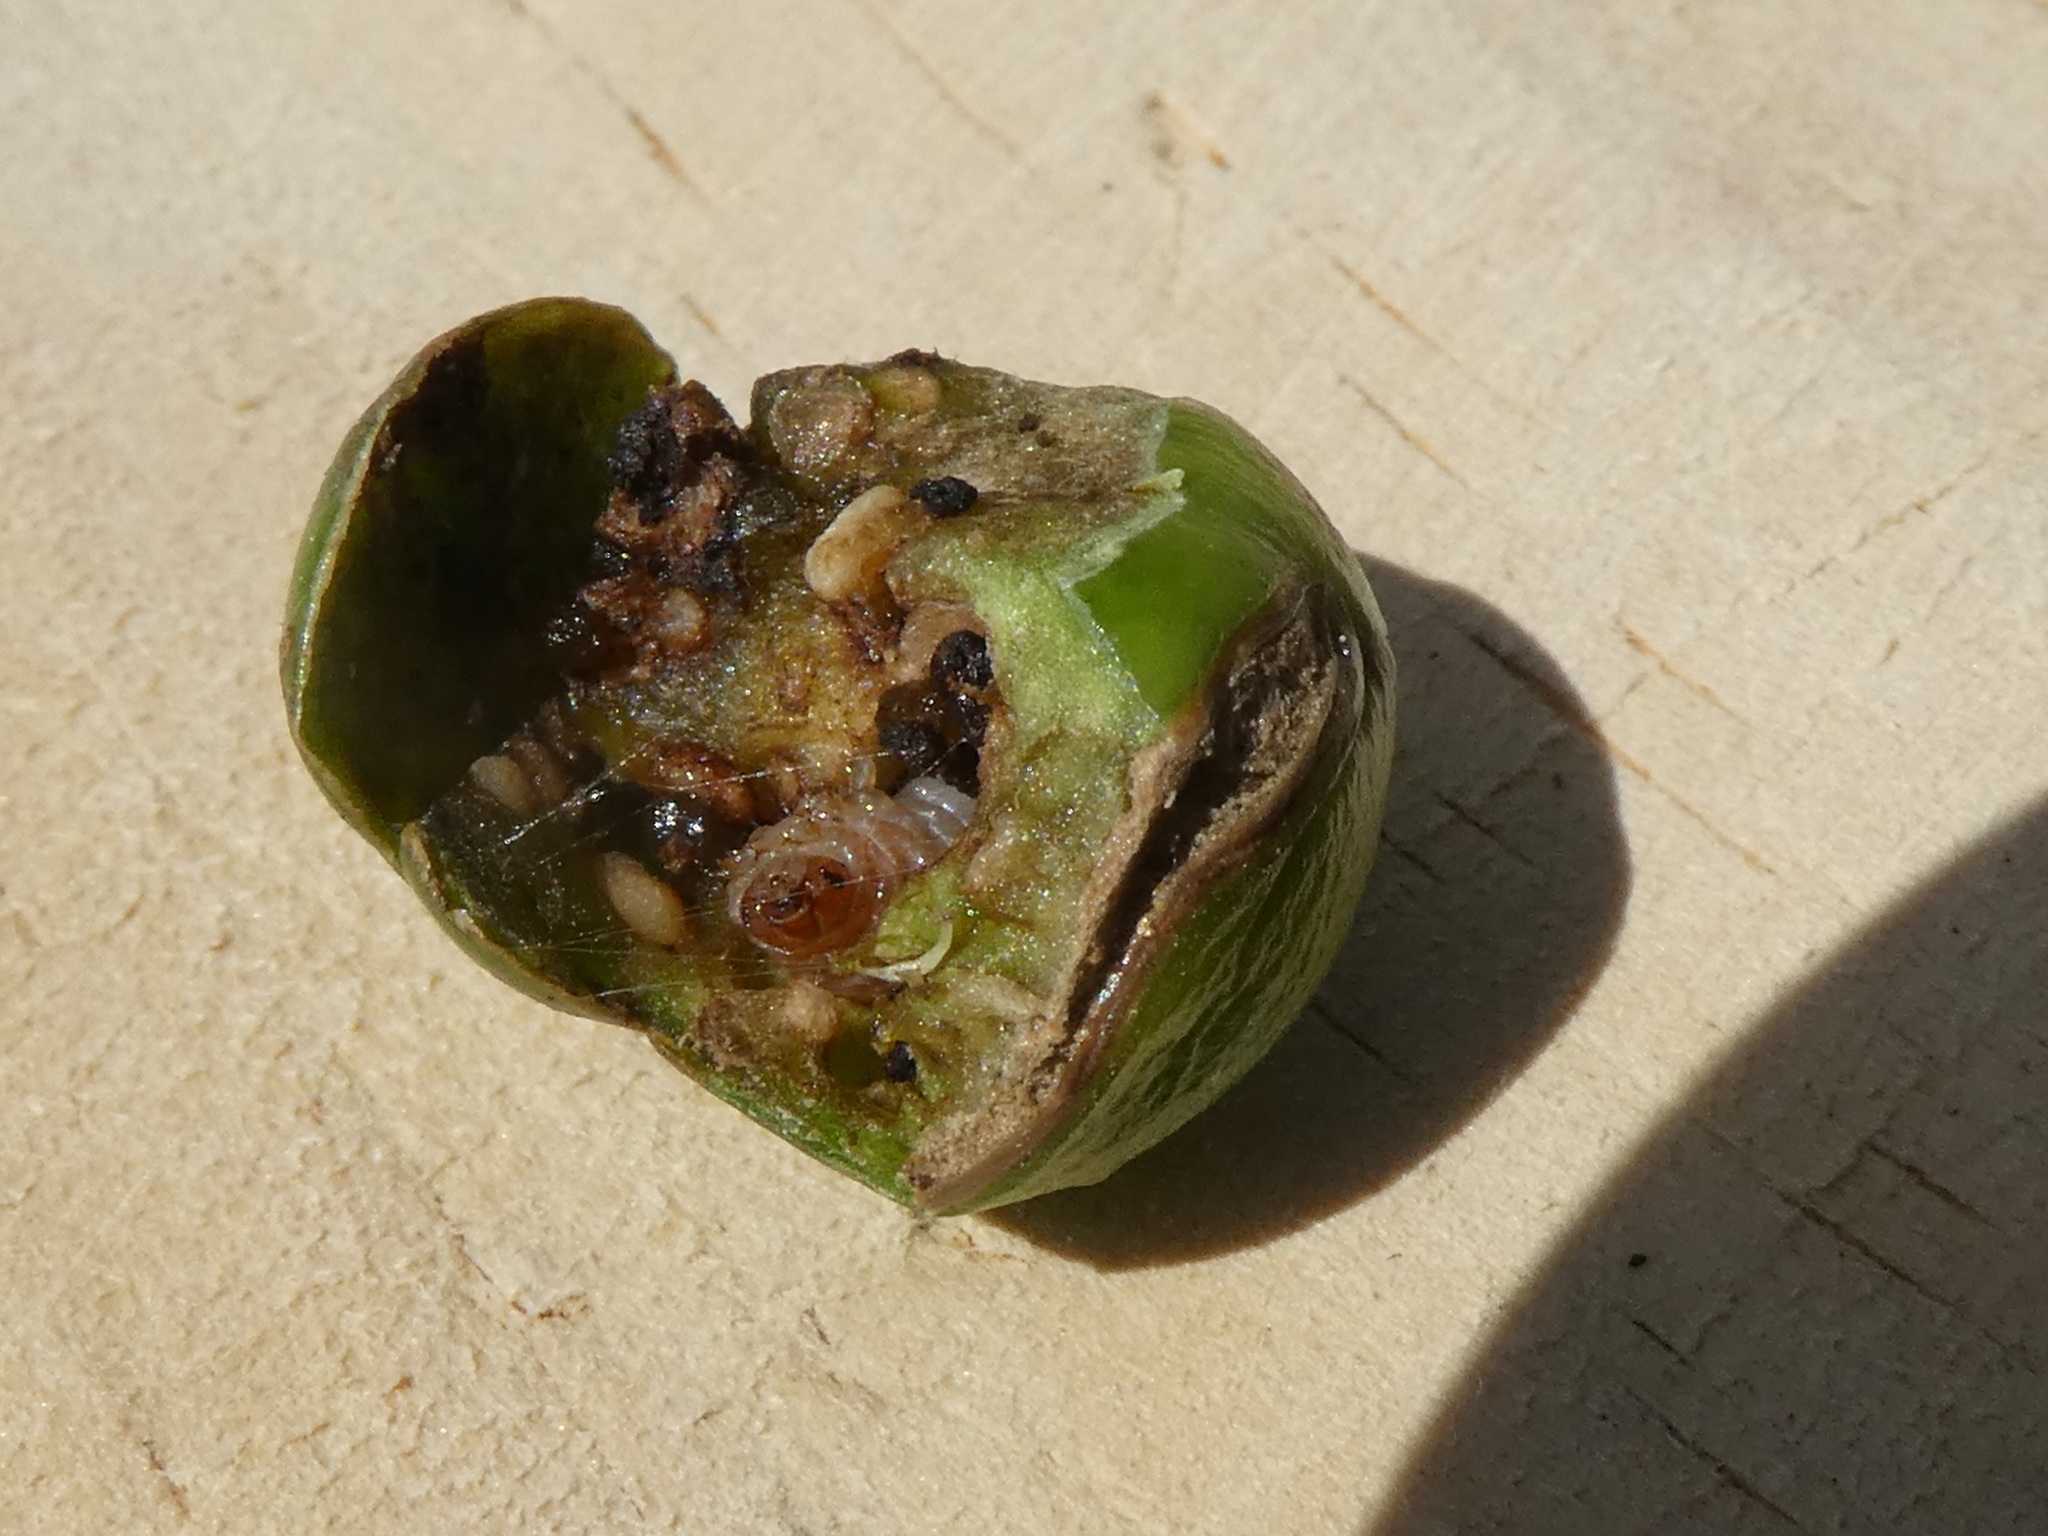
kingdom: Animalia
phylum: Arthropoda
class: Insecta
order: Lepidoptera
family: Crambidae
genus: Sceliodes
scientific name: Sceliodes cordalis
